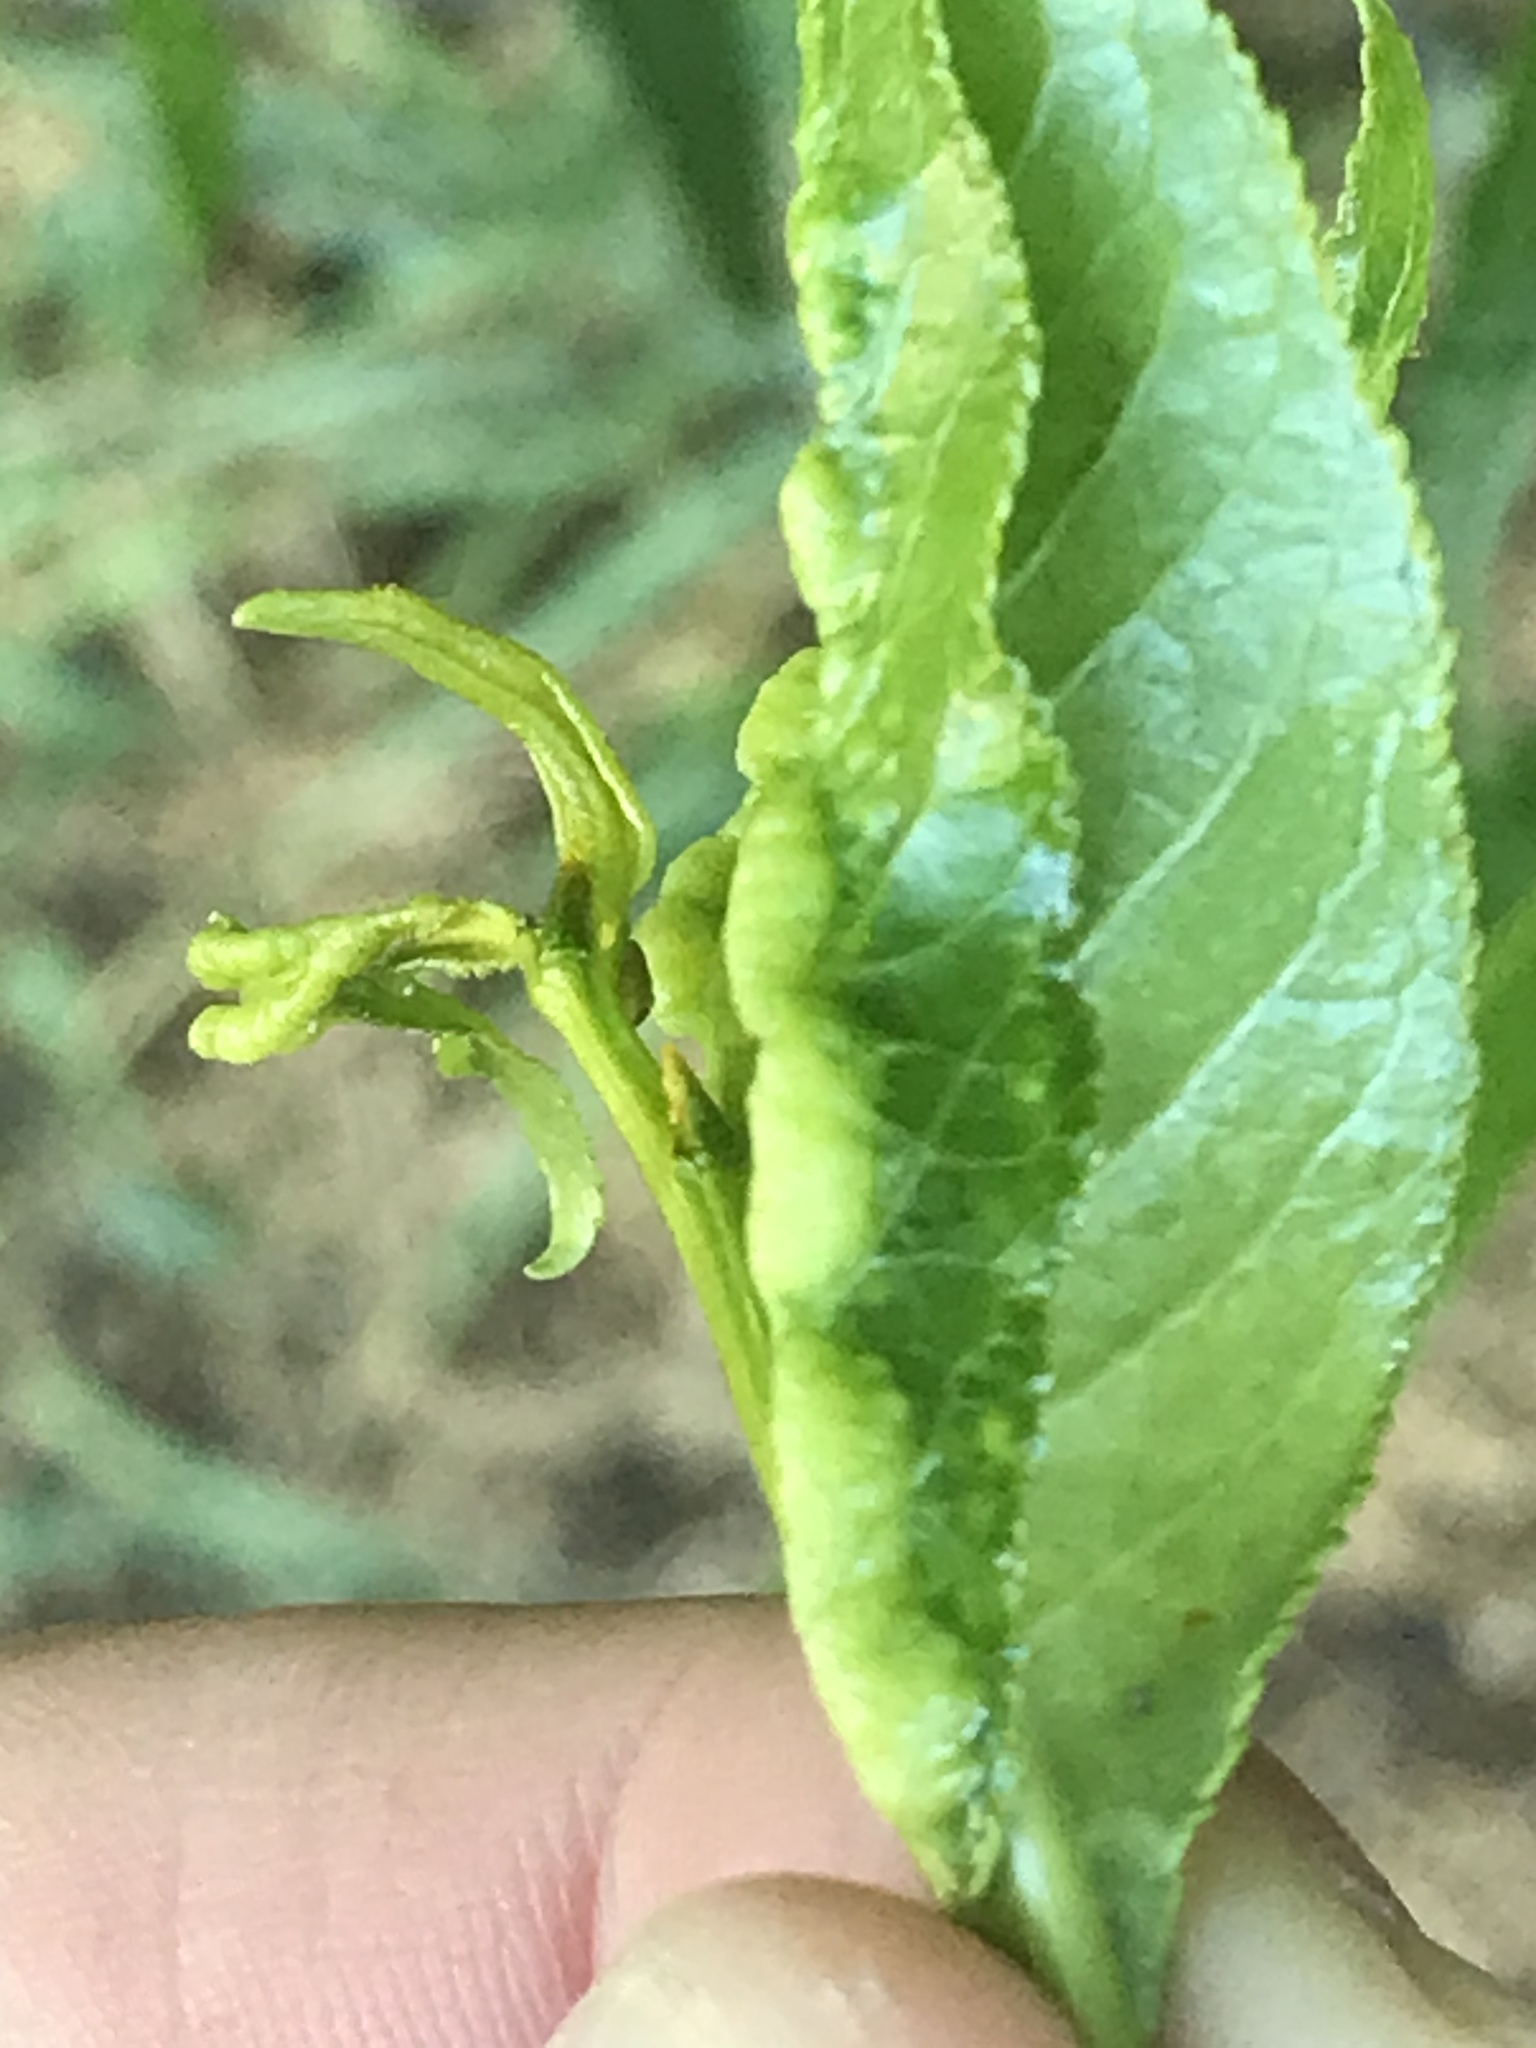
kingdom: Animalia
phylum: Arthropoda
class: Insecta
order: Hemiptera
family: Aphididae
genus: Thecabius
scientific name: Thecabius populimonilis
